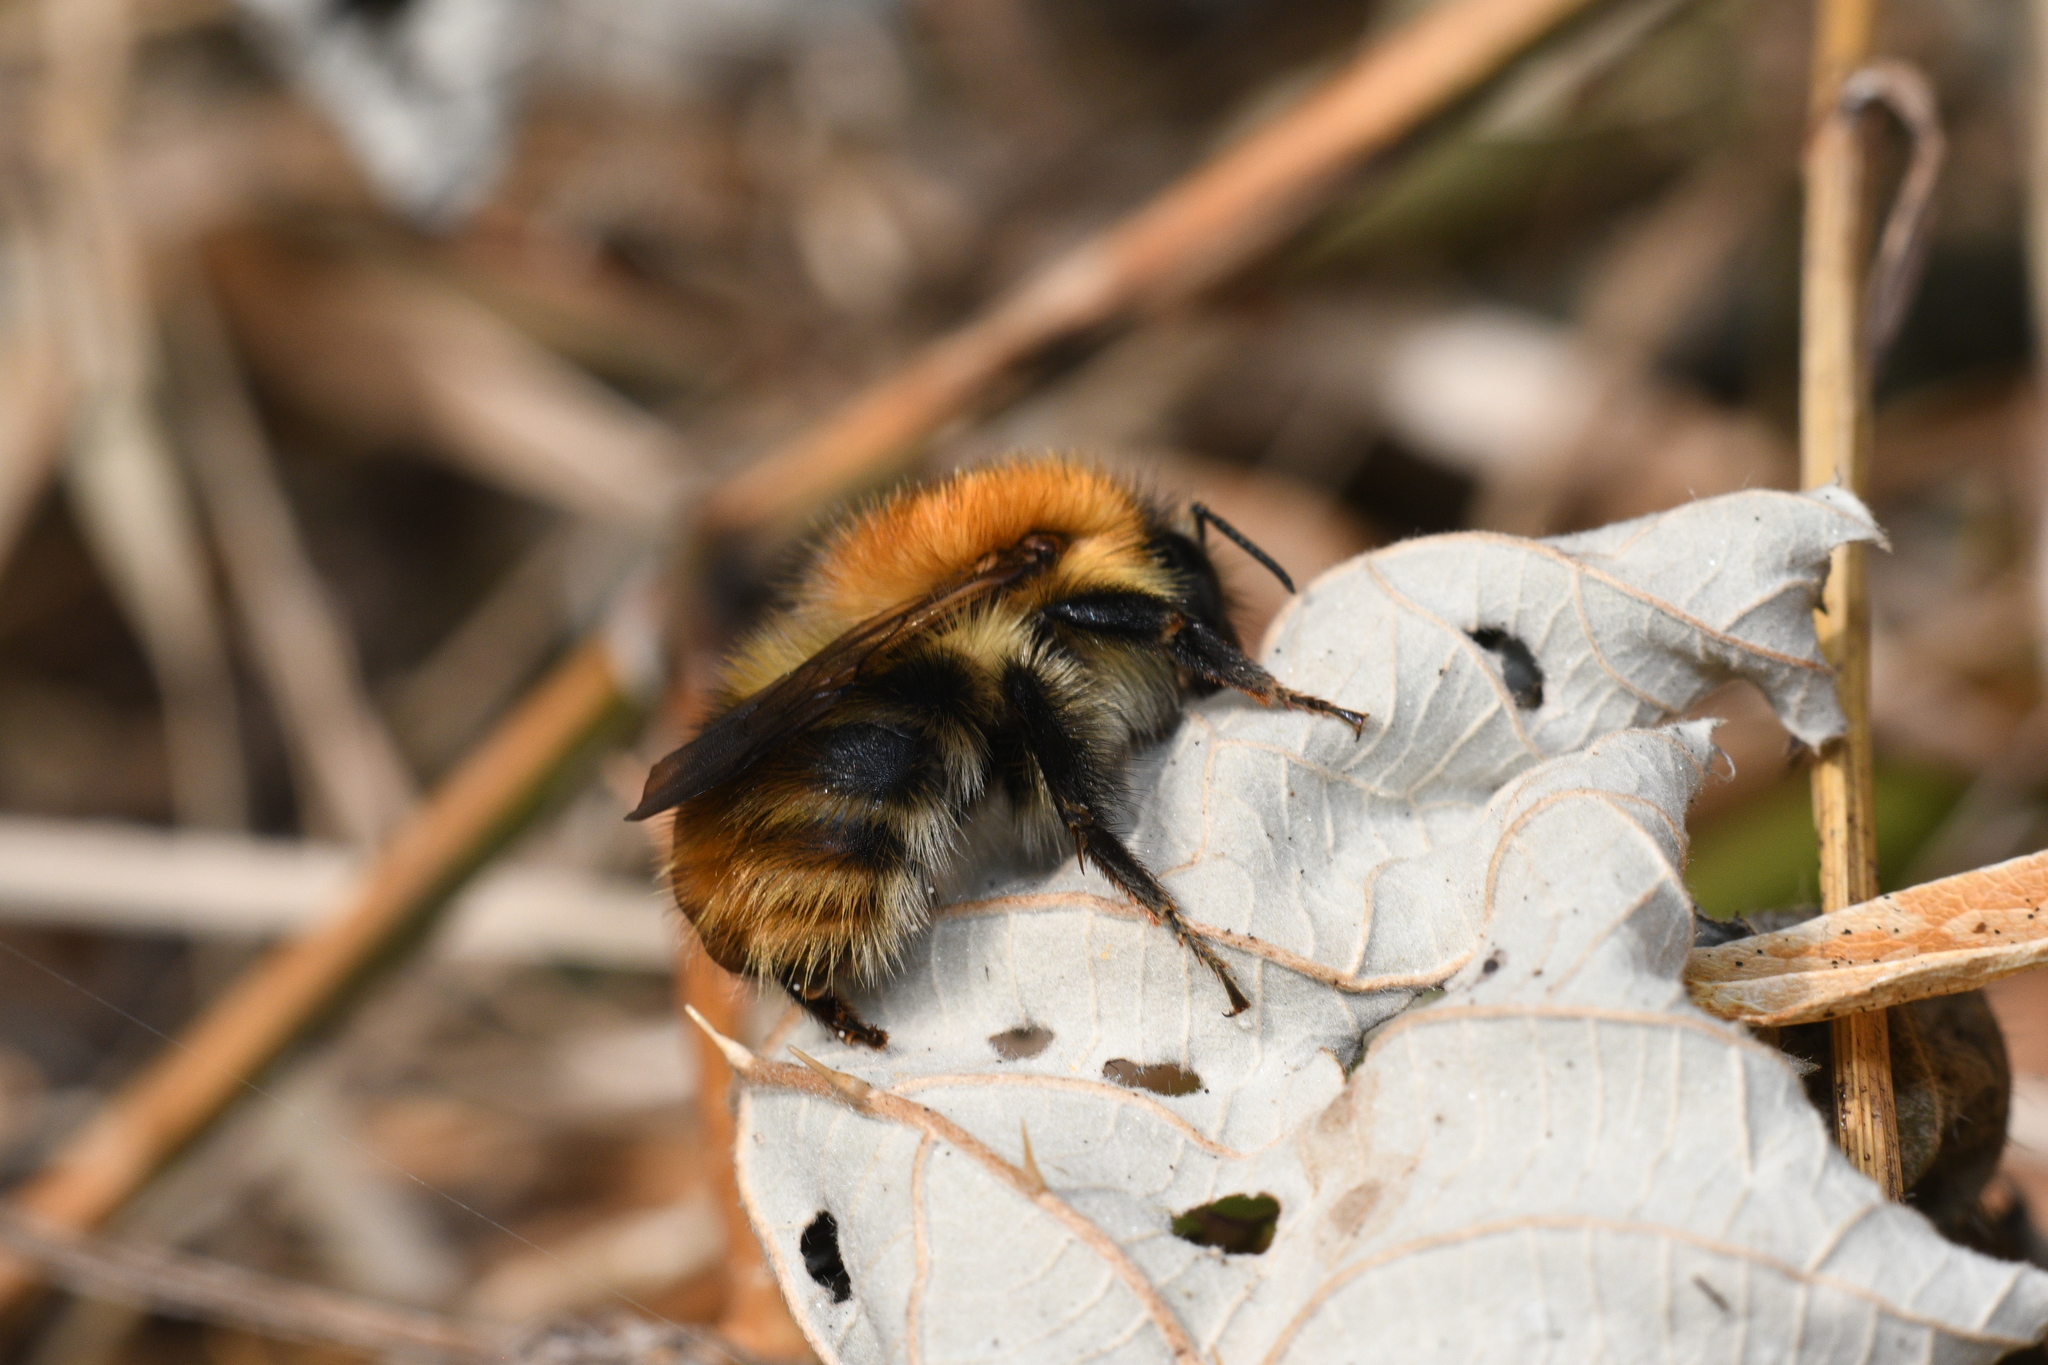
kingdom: Animalia
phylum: Arthropoda
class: Insecta
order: Hymenoptera
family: Apidae
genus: Bombus
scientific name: Bombus pascuorum
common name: Common carder bee
